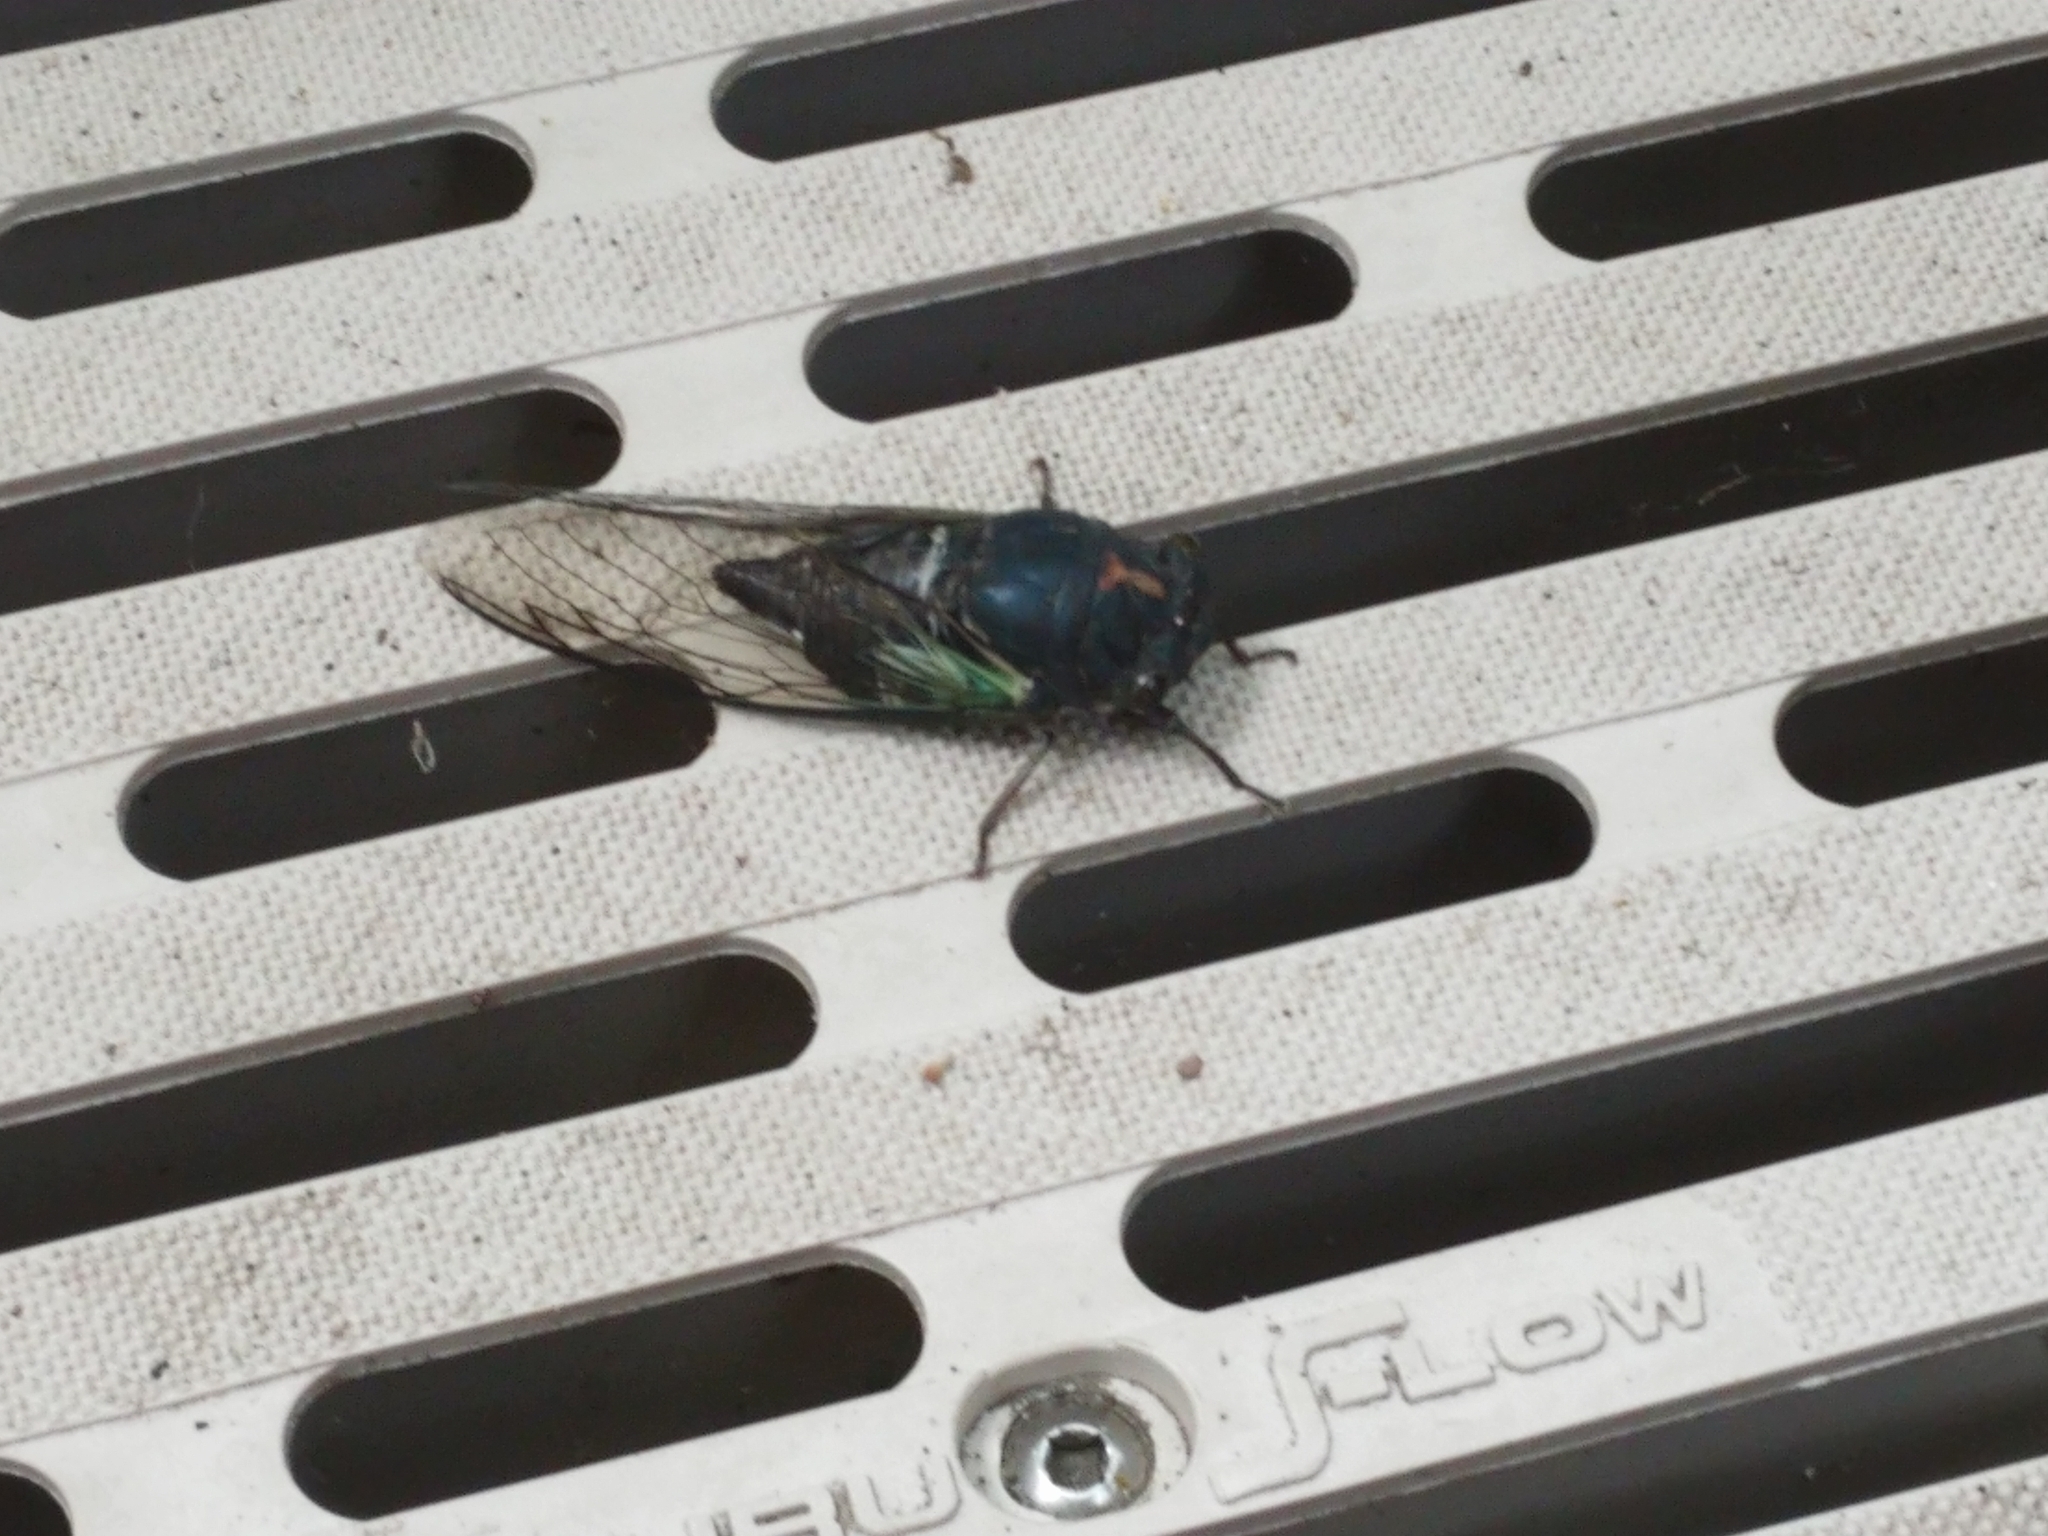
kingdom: Animalia
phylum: Arthropoda
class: Insecta
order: Hemiptera
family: Cicadidae
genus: Neotibicen
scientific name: Neotibicen lyricen
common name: Lyric cicada
